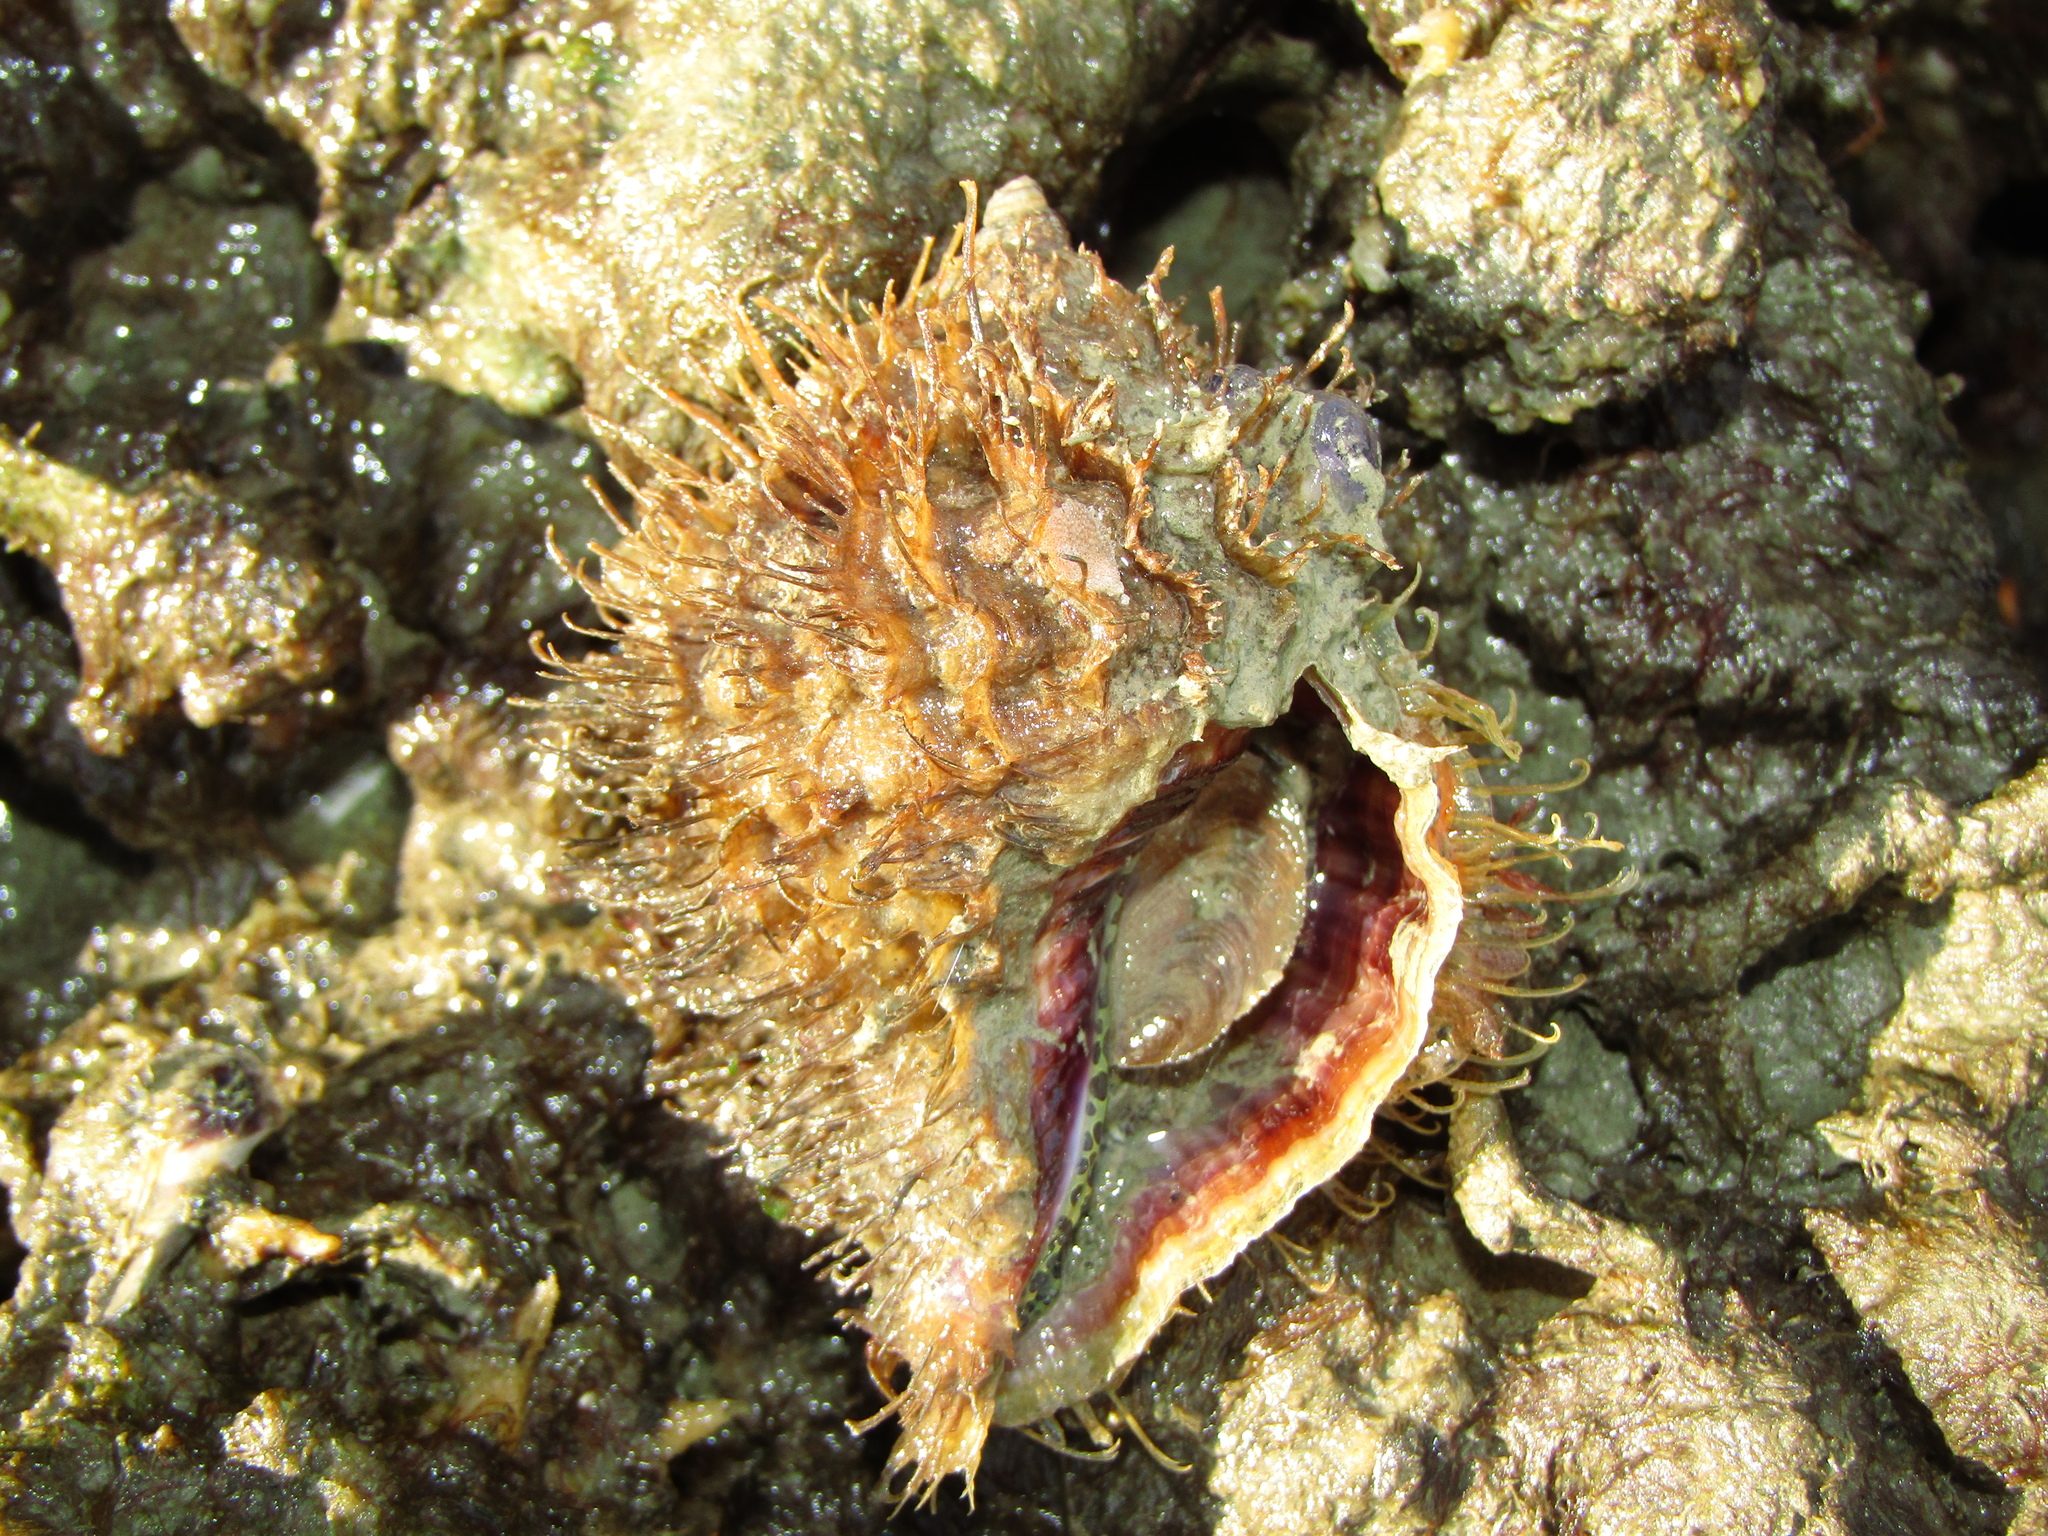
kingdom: Animalia
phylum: Mollusca
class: Gastropoda
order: Littorinimorpha
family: Cymatiidae
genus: Monoplex
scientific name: Monoplex parthenopeus
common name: Giant triton
